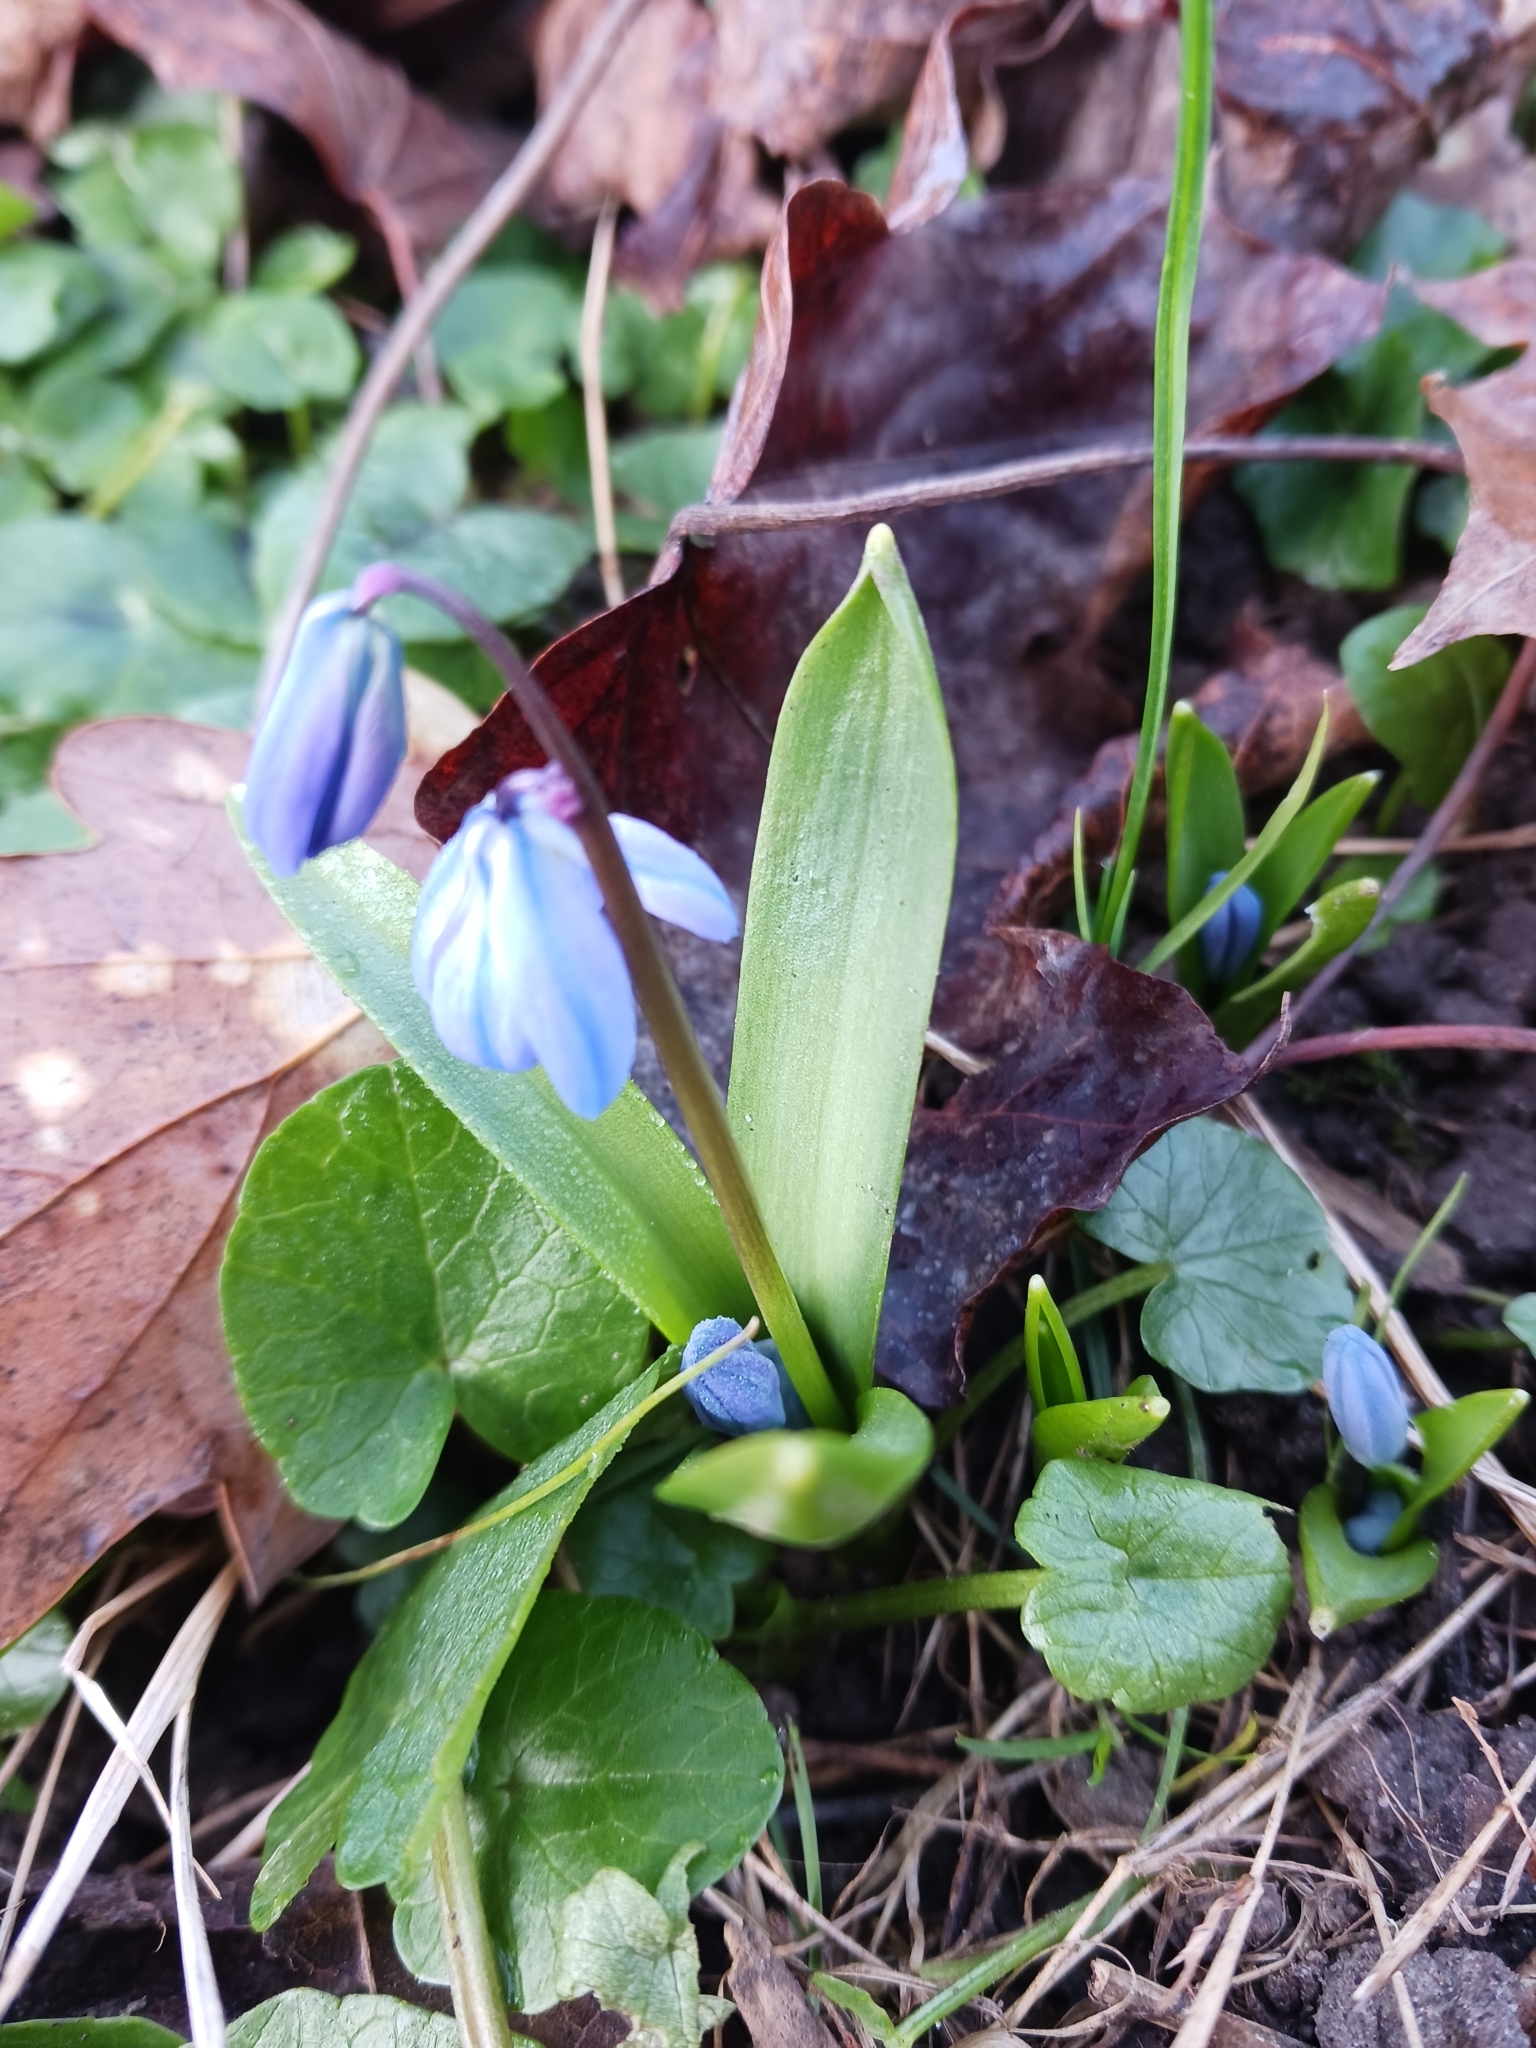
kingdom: Plantae
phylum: Tracheophyta
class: Liliopsida
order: Asparagales
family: Asparagaceae
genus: Scilla
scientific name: Scilla siberica
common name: Siberian squill
